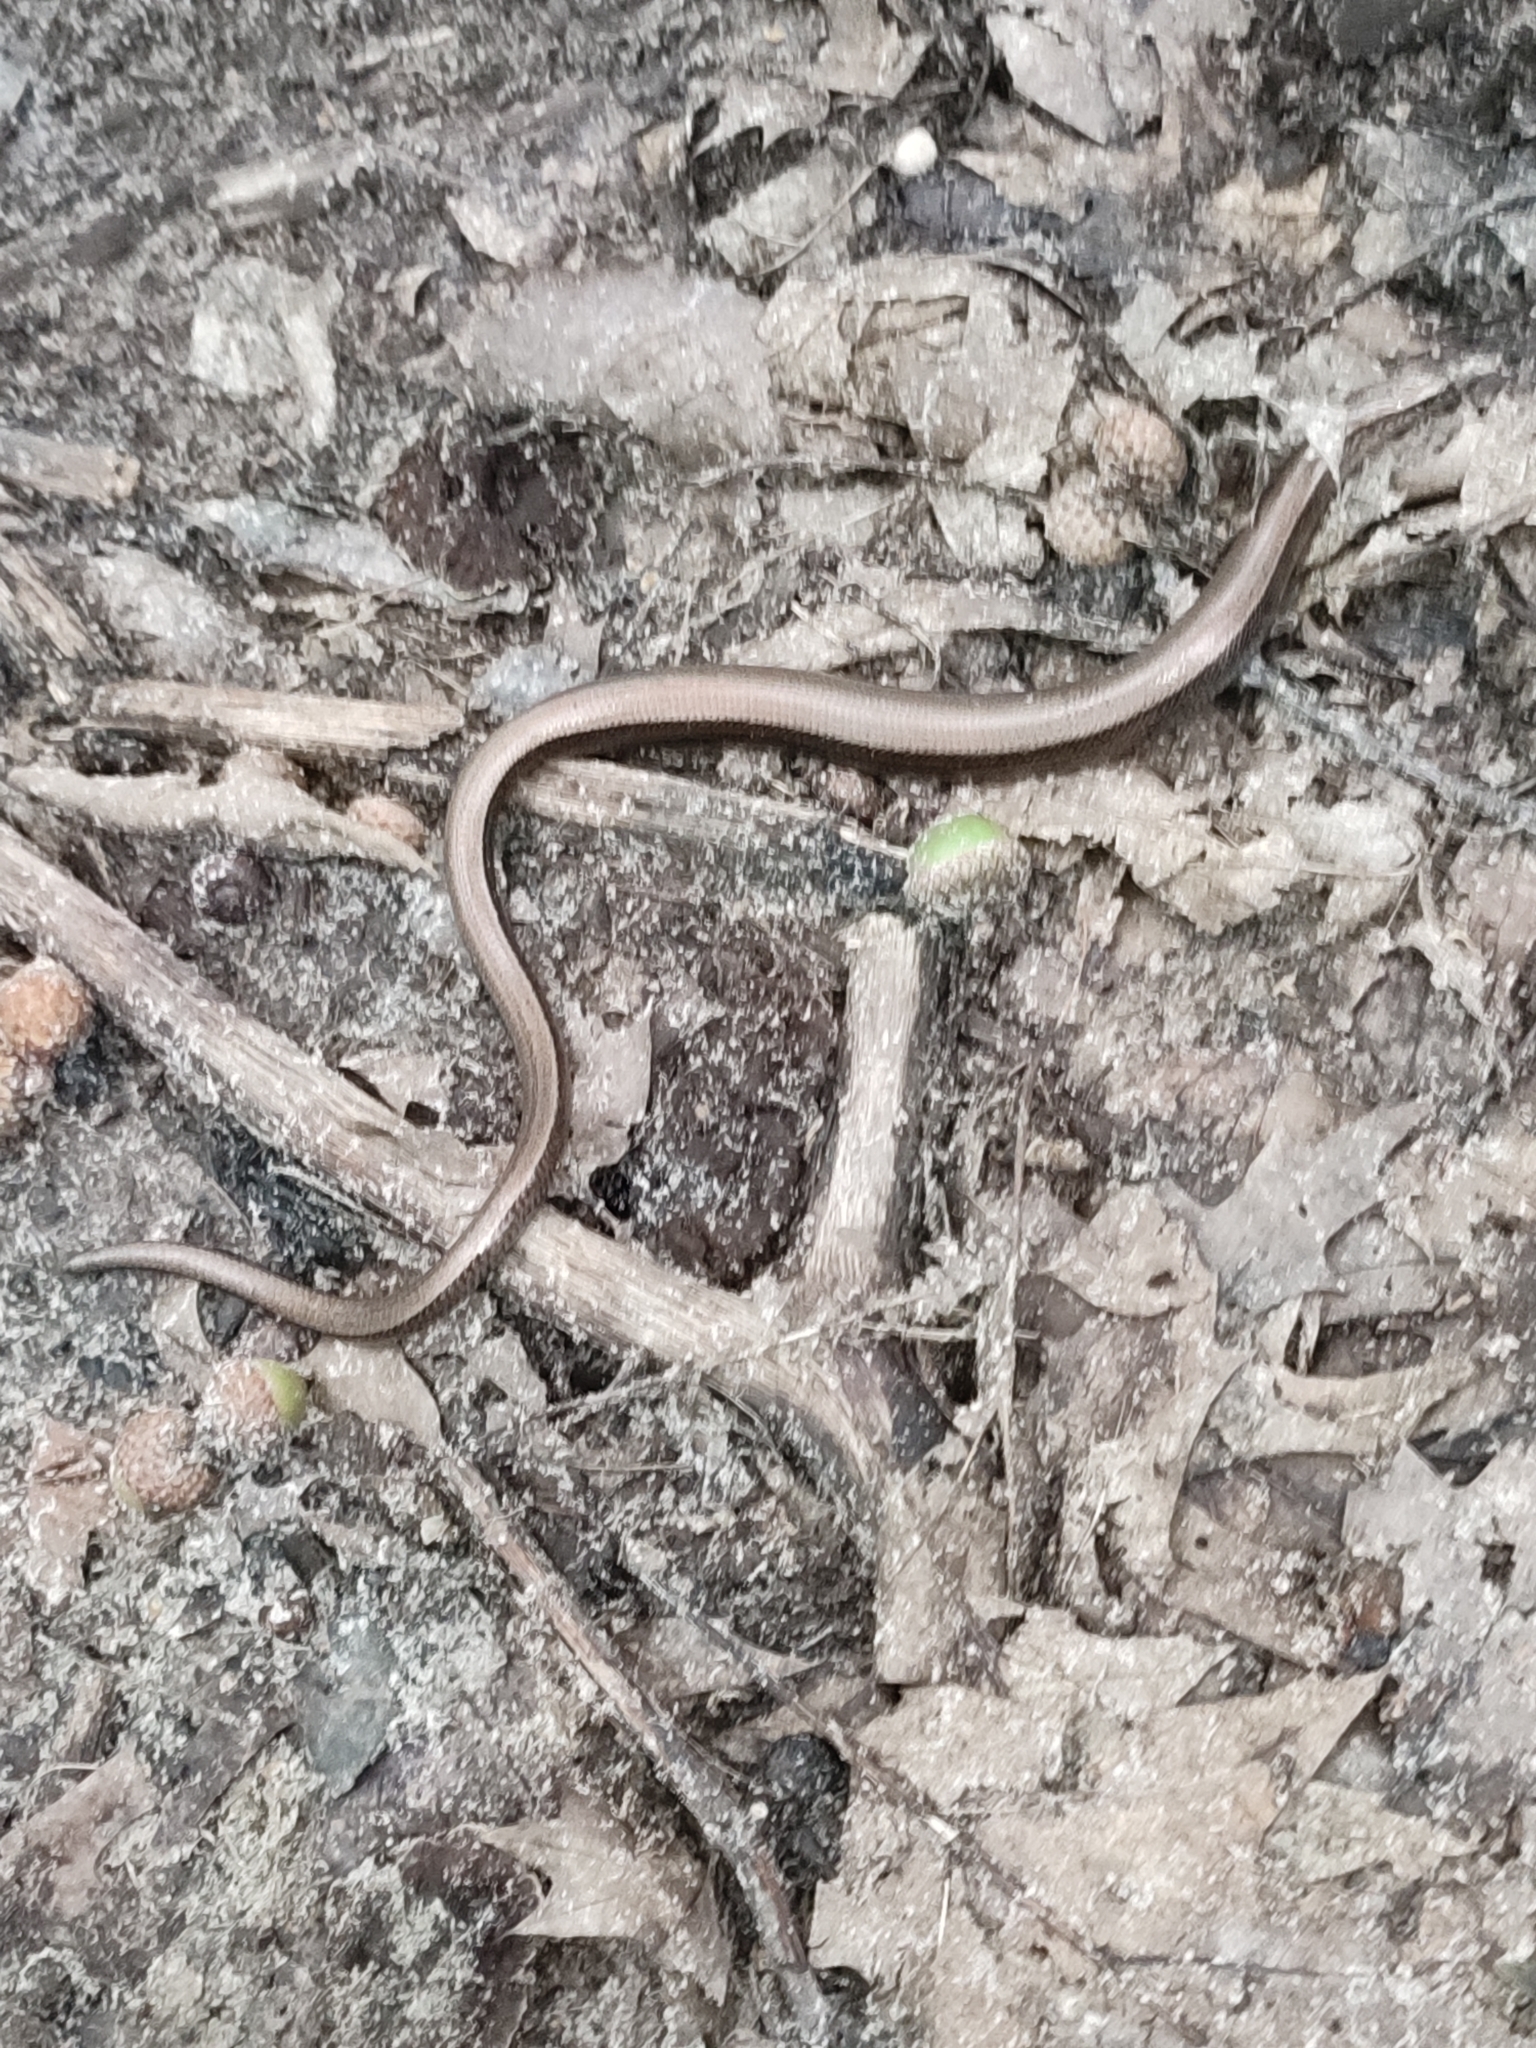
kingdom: Animalia
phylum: Chordata
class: Squamata
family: Anguidae
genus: Anguis
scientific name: Anguis colchica
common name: Slow worm
